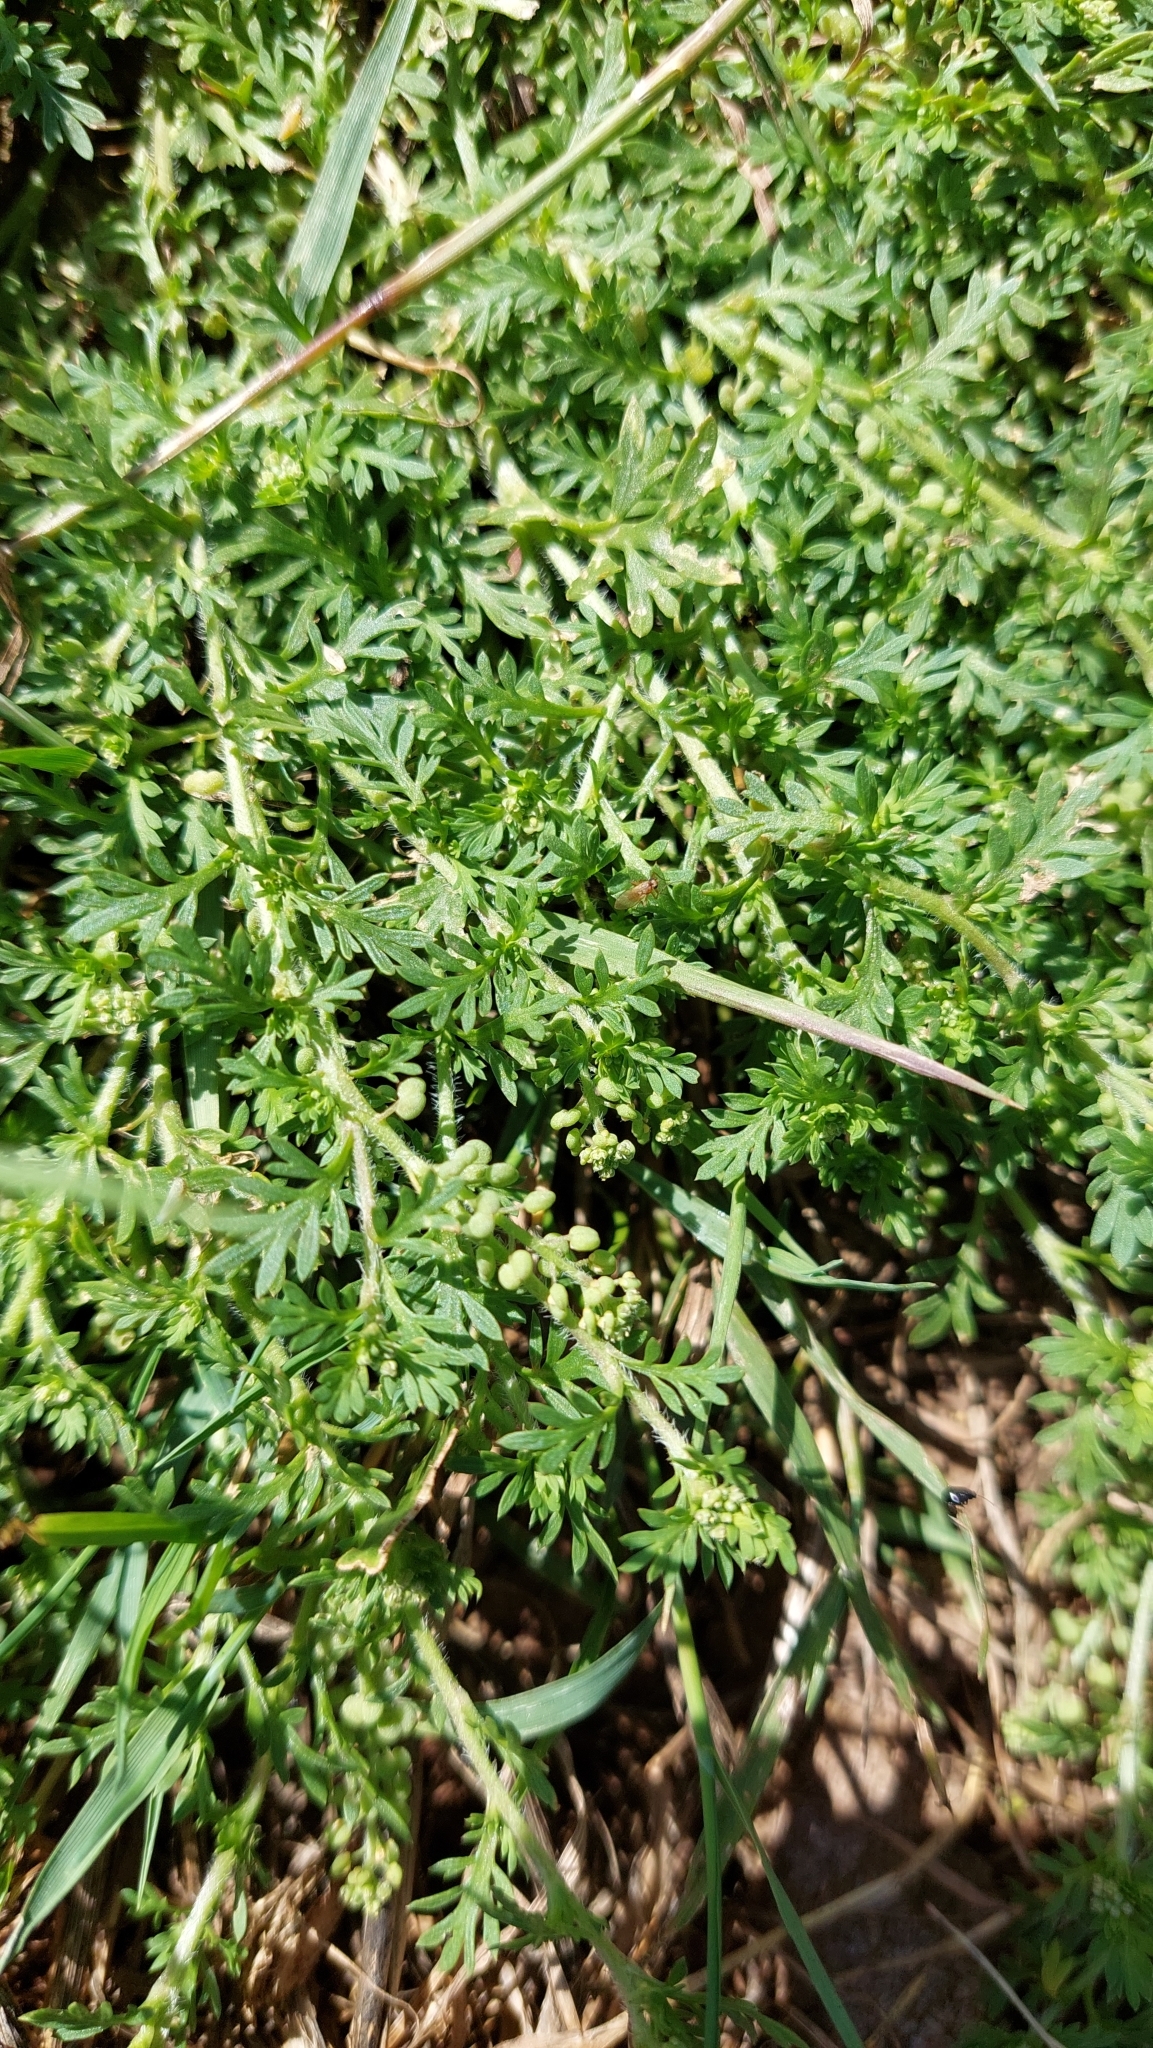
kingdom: Plantae
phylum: Tracheophyta
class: Magnoliopsida
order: Brassicales
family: Brassicaceae
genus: Lepidium
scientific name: Lepidium didymum
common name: Lesser swinecress
